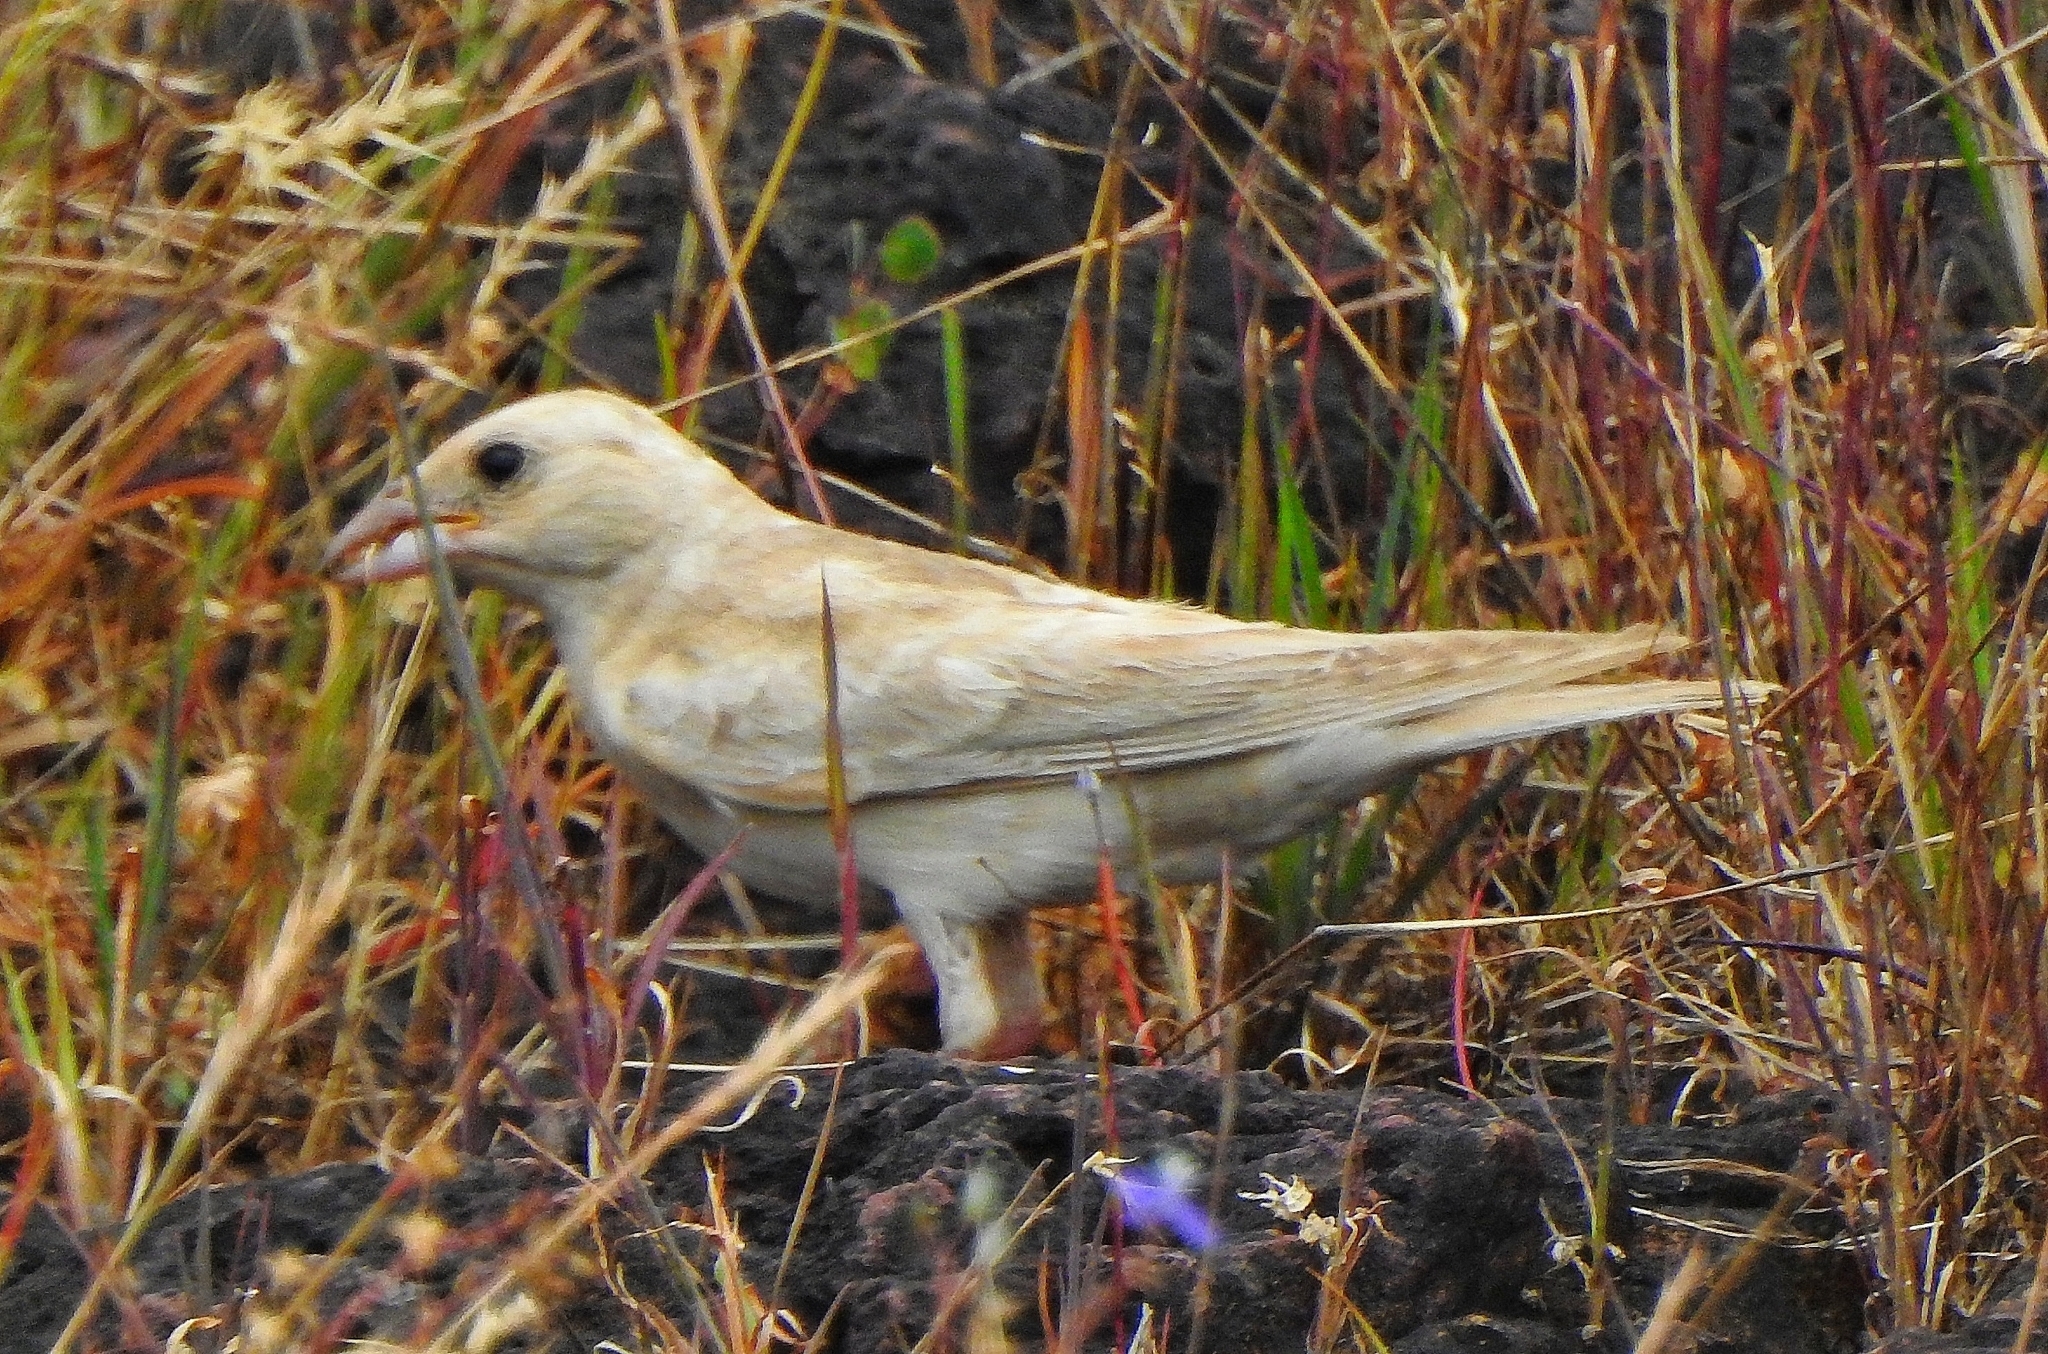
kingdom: Animalia
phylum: Chordata
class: Aves
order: Passeriformes
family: Passeridae
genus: Carpospiza
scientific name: Carpospiza brachydactyla
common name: Pale rockfinch
